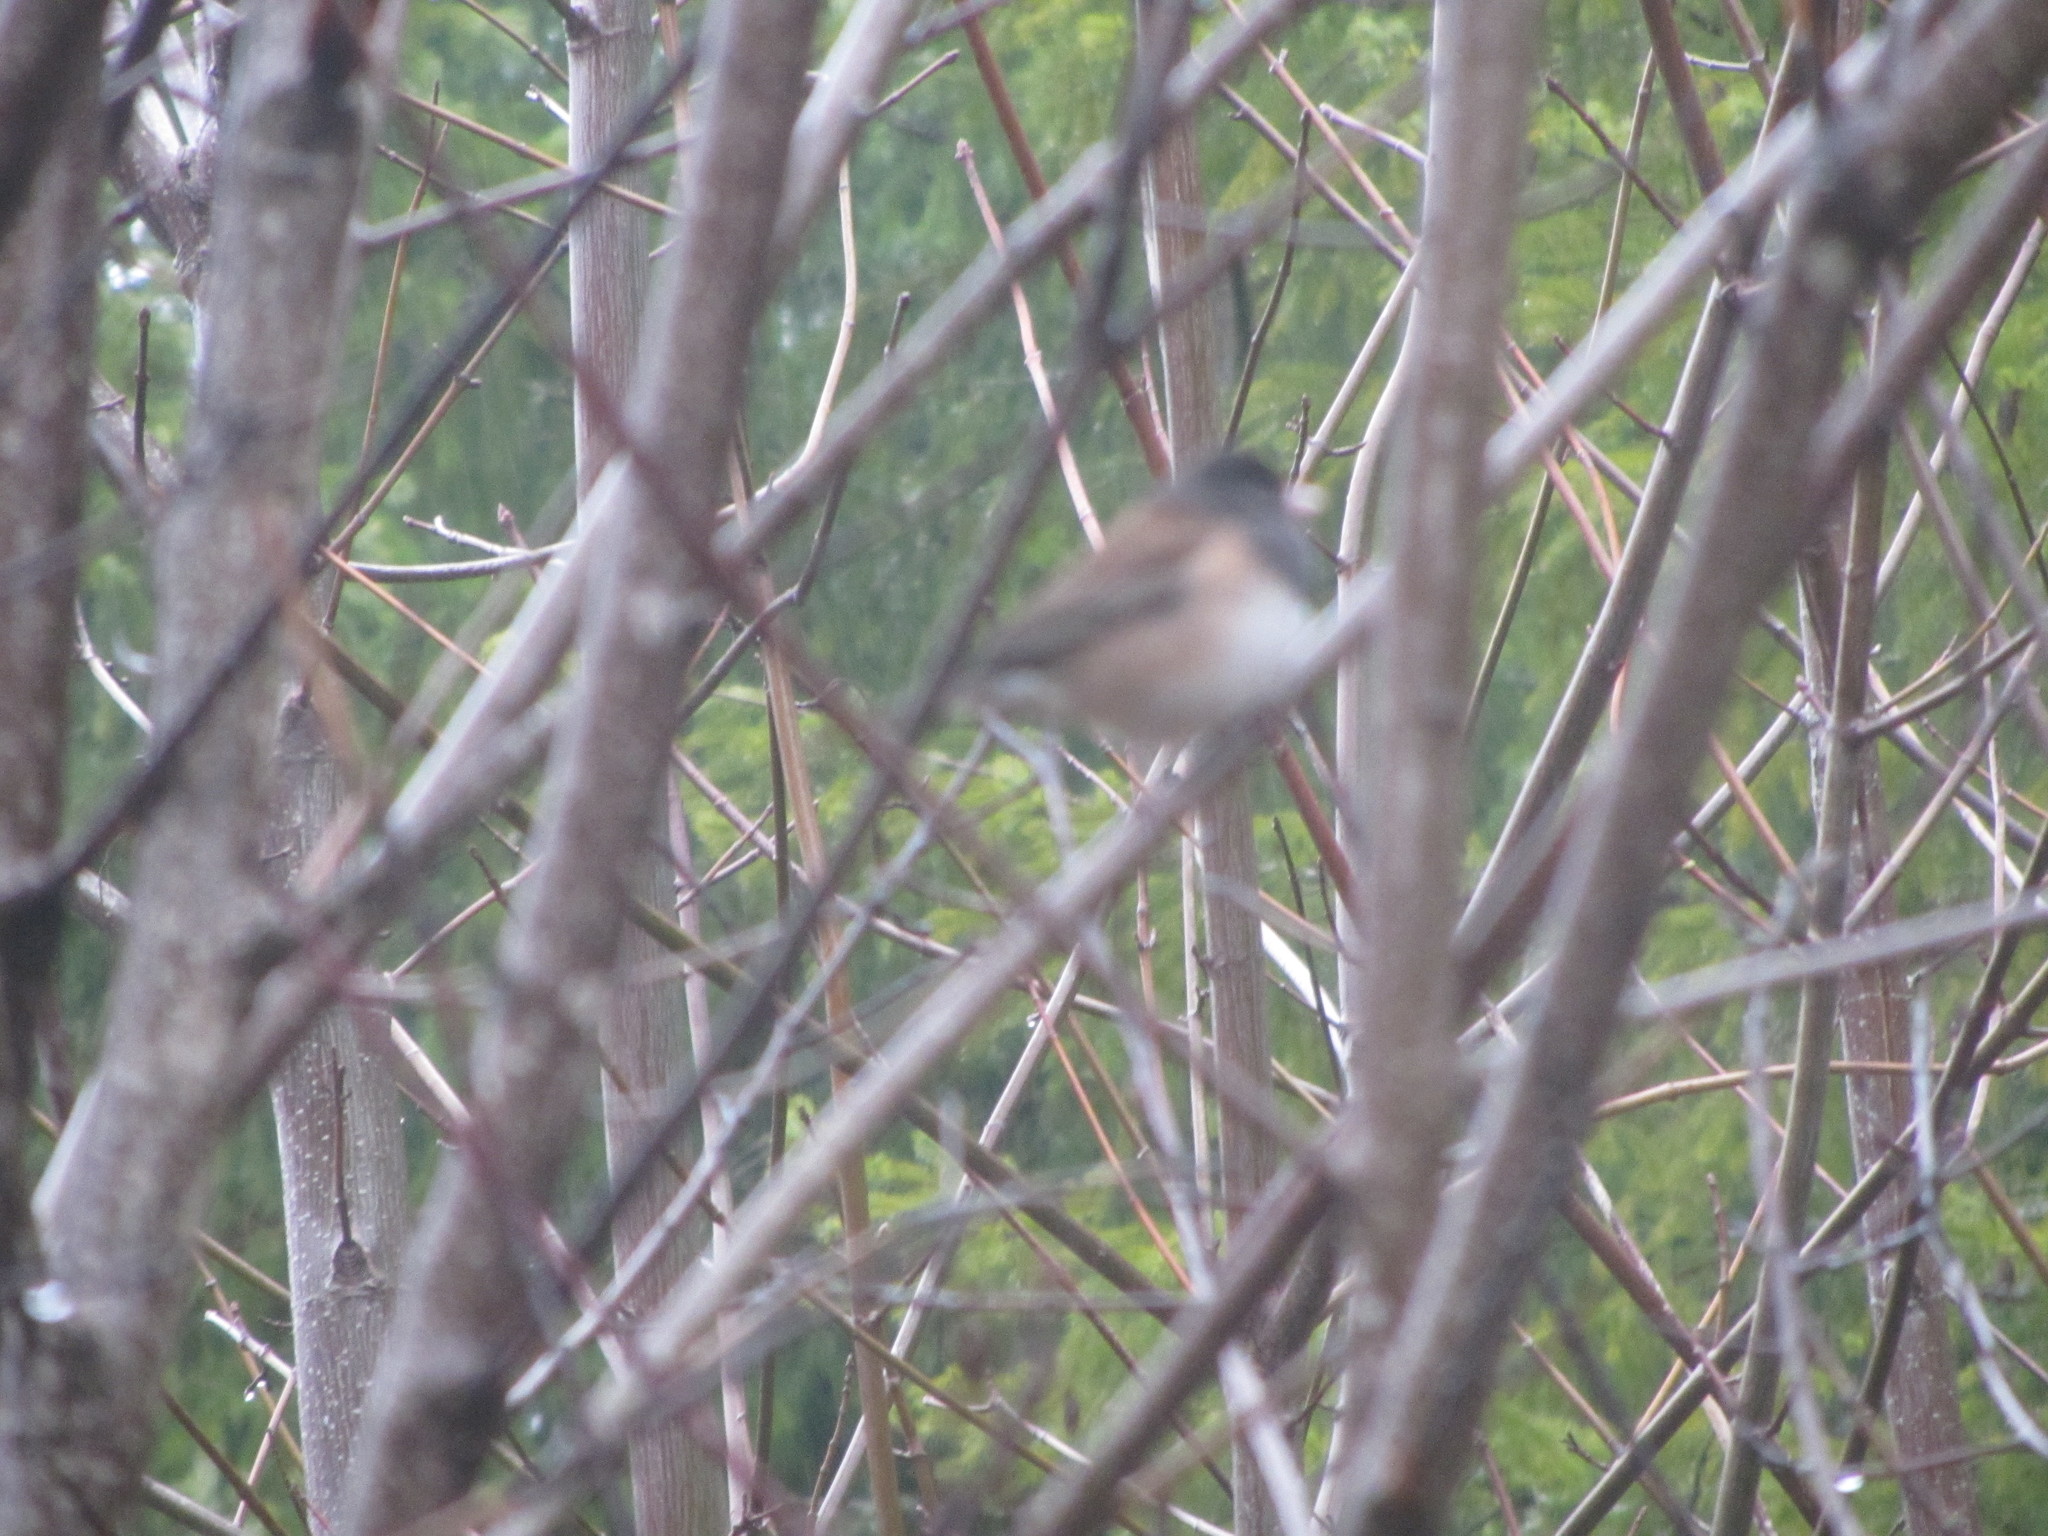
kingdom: Animalia
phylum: Chordata
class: Aves
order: Passeriformes
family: Passerellidae
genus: Junco
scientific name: Junco hyemalis
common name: Dark-eyed junco
